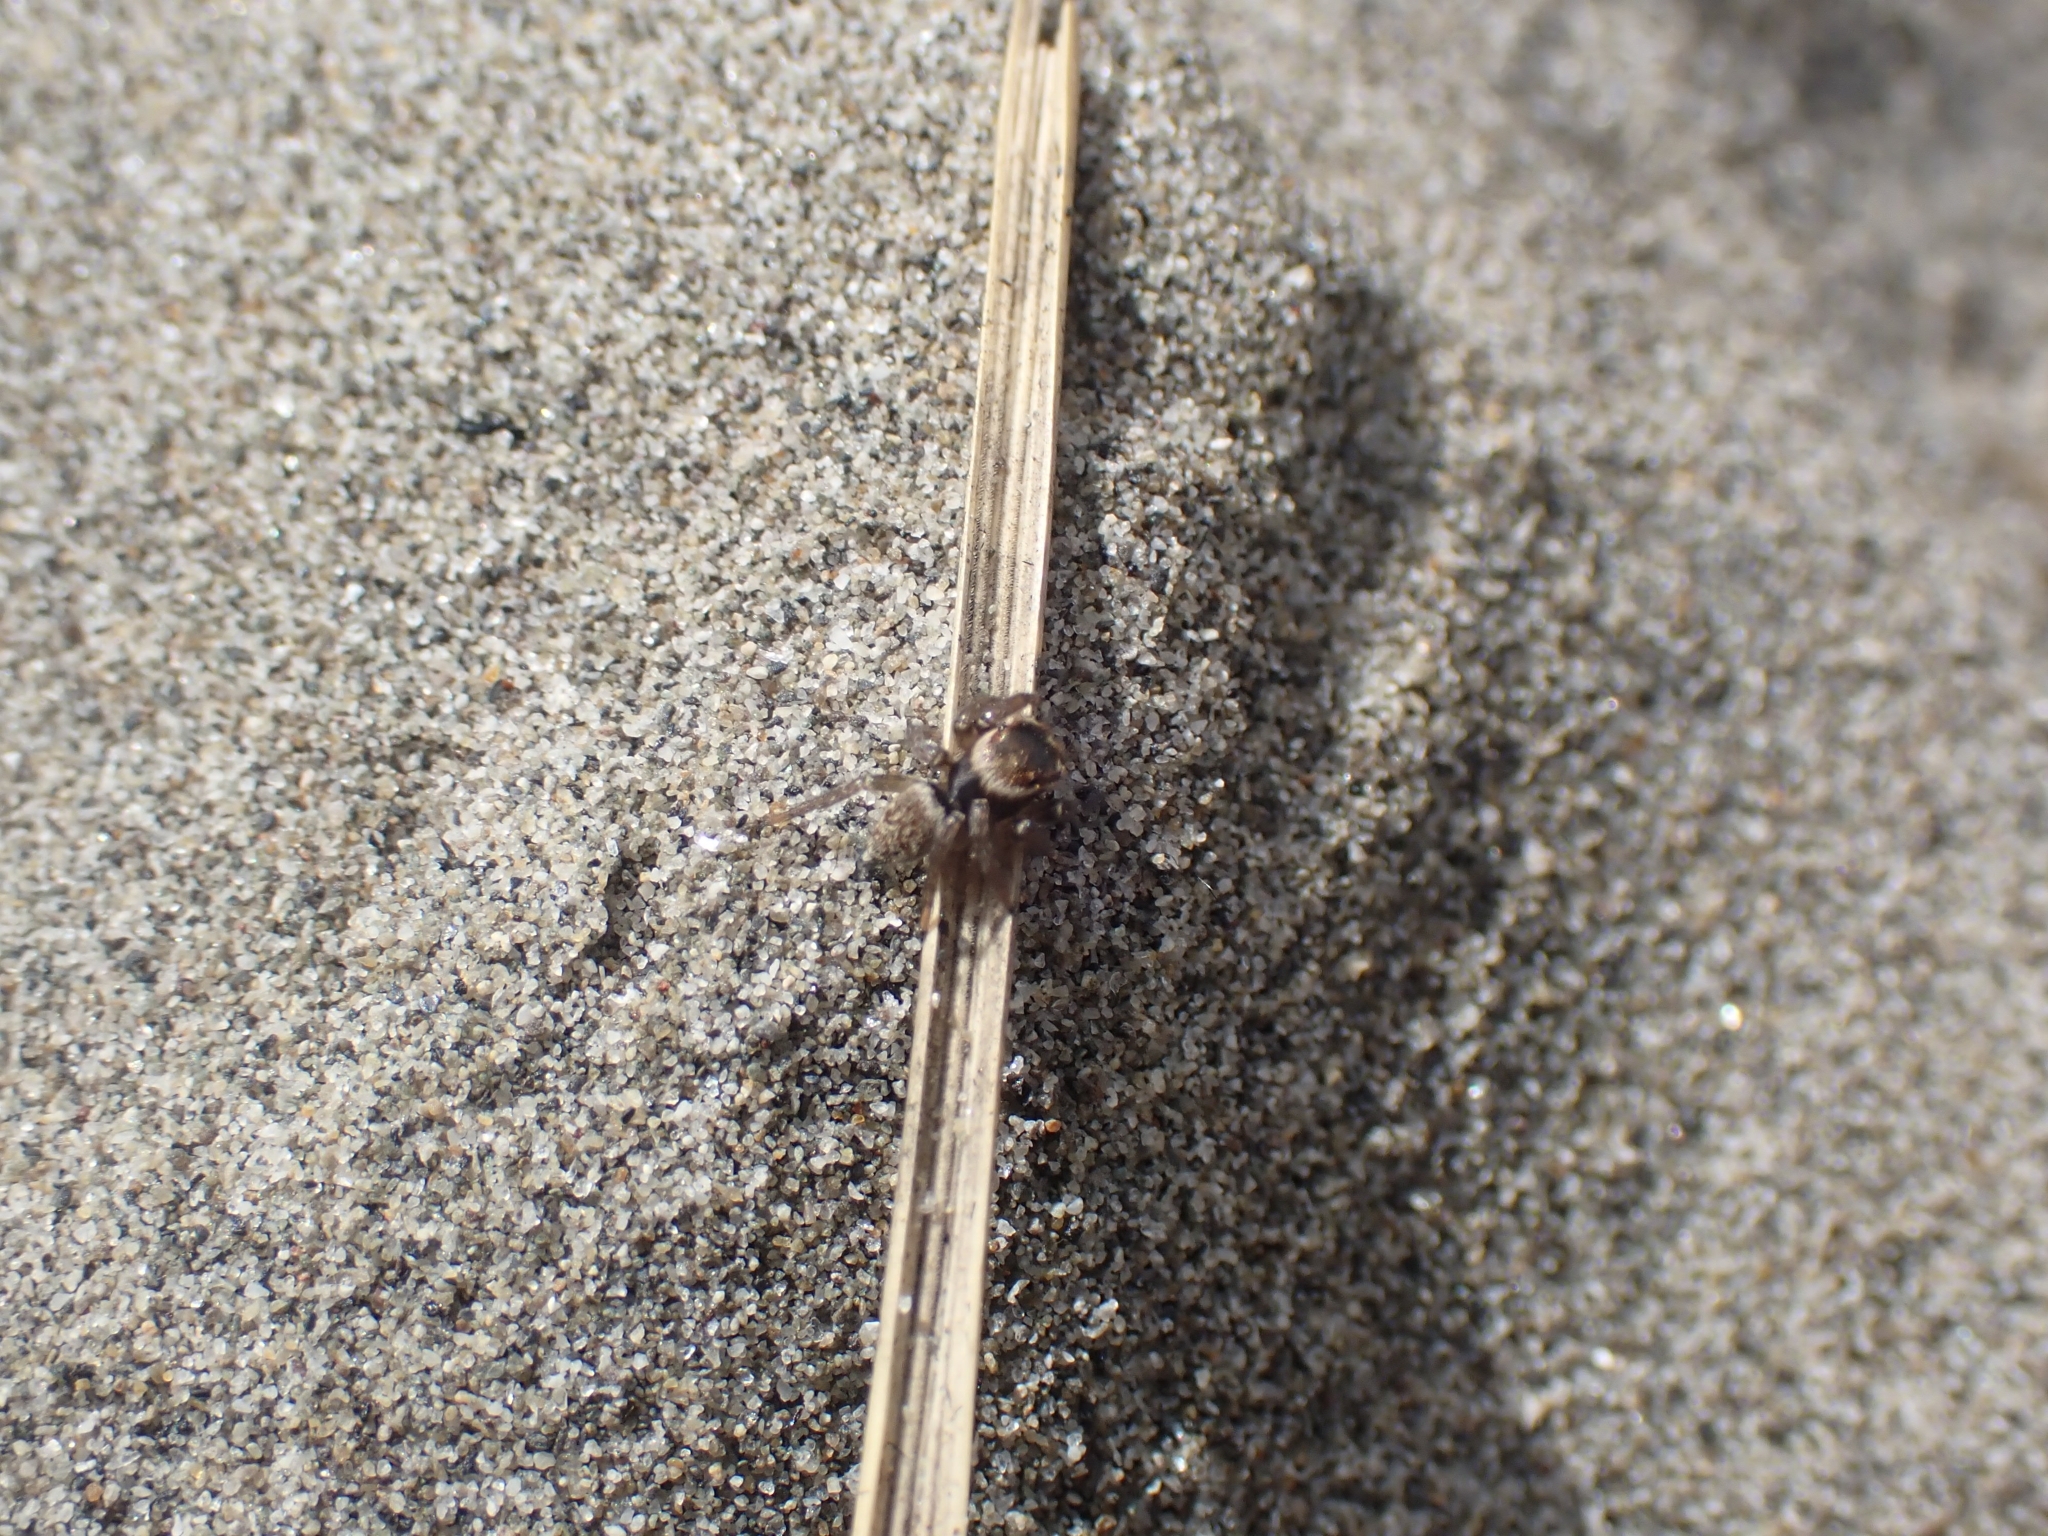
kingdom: Animalia
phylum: Arthropoda
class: Arachnida
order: Araneae
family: Salticidae
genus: Maratus
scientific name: Maratus griseus
